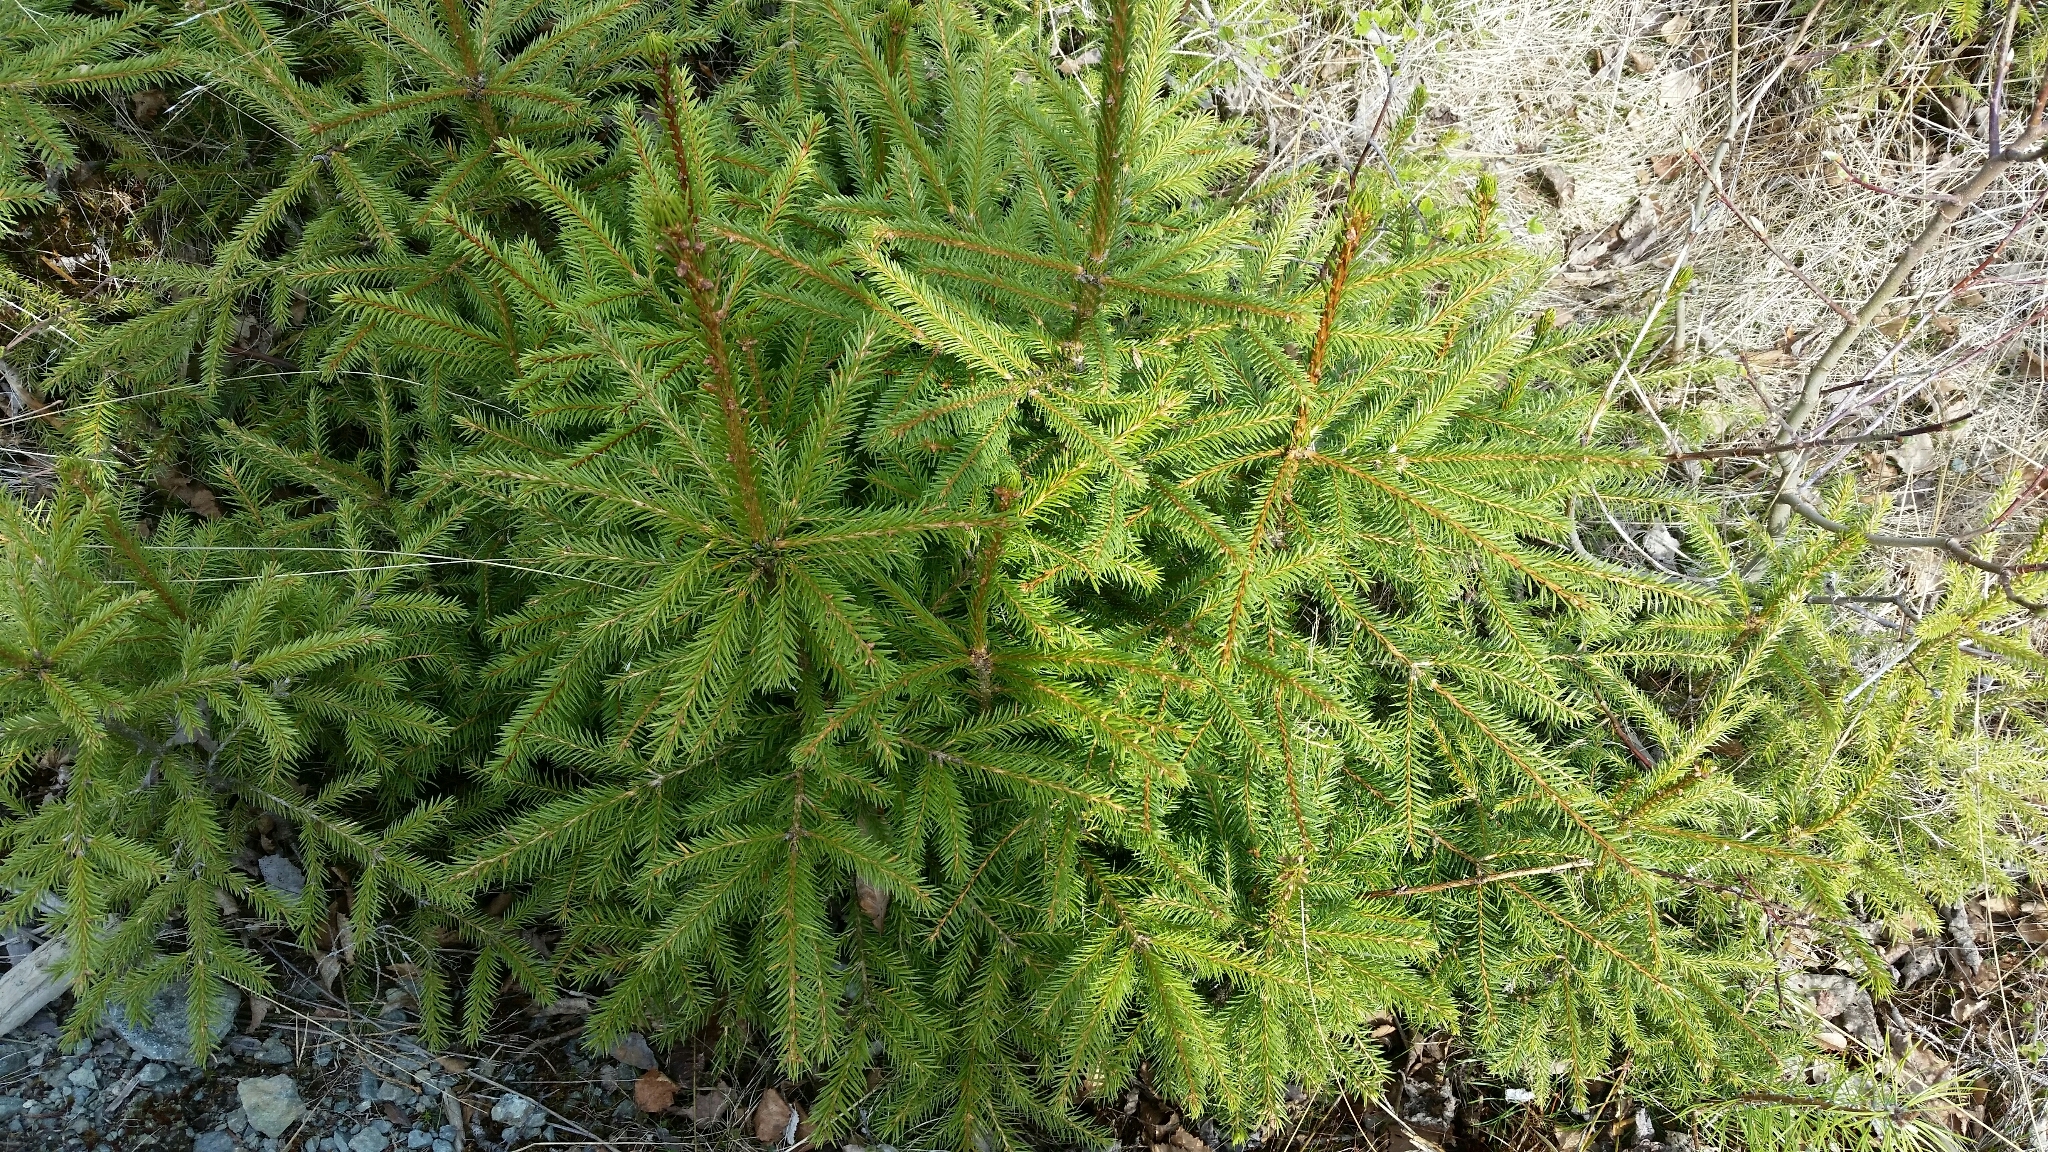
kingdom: Plantae
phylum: Tracheophyta
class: Pinopsida
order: Pinales
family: Pinaceae
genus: Picea
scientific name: Picea abies
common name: Norway spruce
